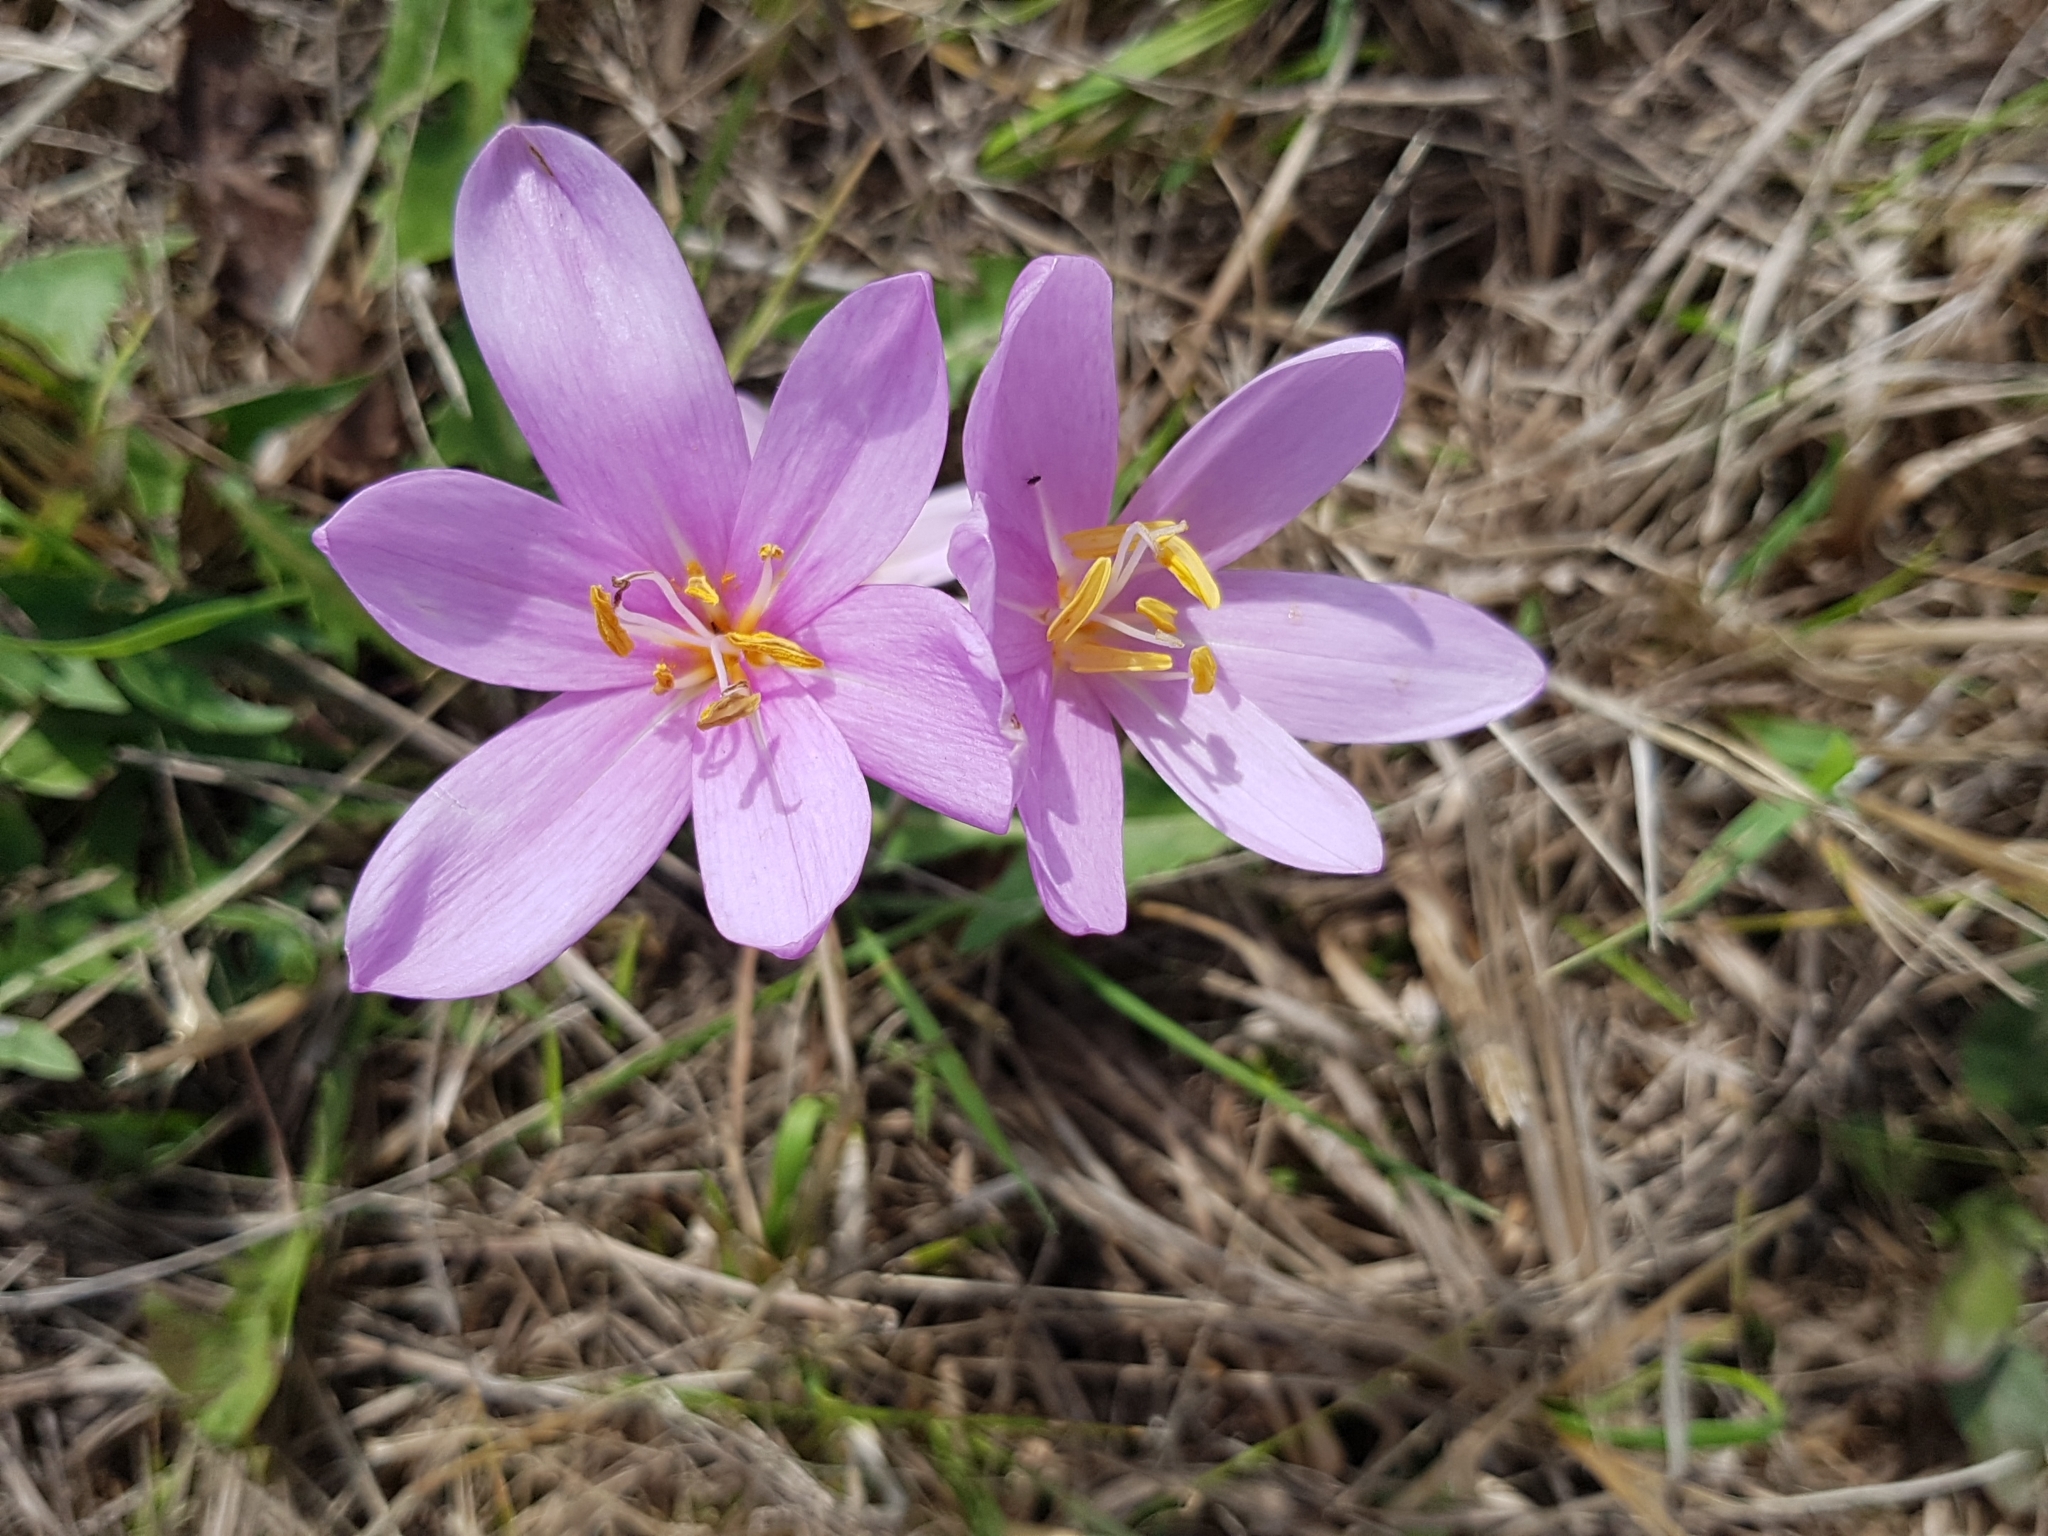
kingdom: Plantae
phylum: Tracheophyta
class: Liliopsida
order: Liliales
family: Colchicaceae
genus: Colchicum
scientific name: Colchicum autumnale
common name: Autumn crocus
